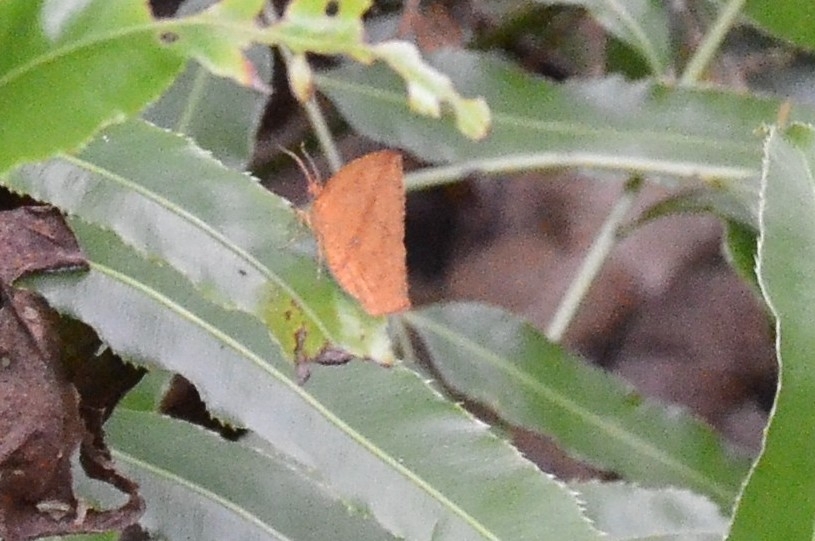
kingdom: Animalia
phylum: Arthropoda
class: Insecta
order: Lepidoptera
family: Callidulidae
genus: Tetragonus
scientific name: Tetragonus catamitus
